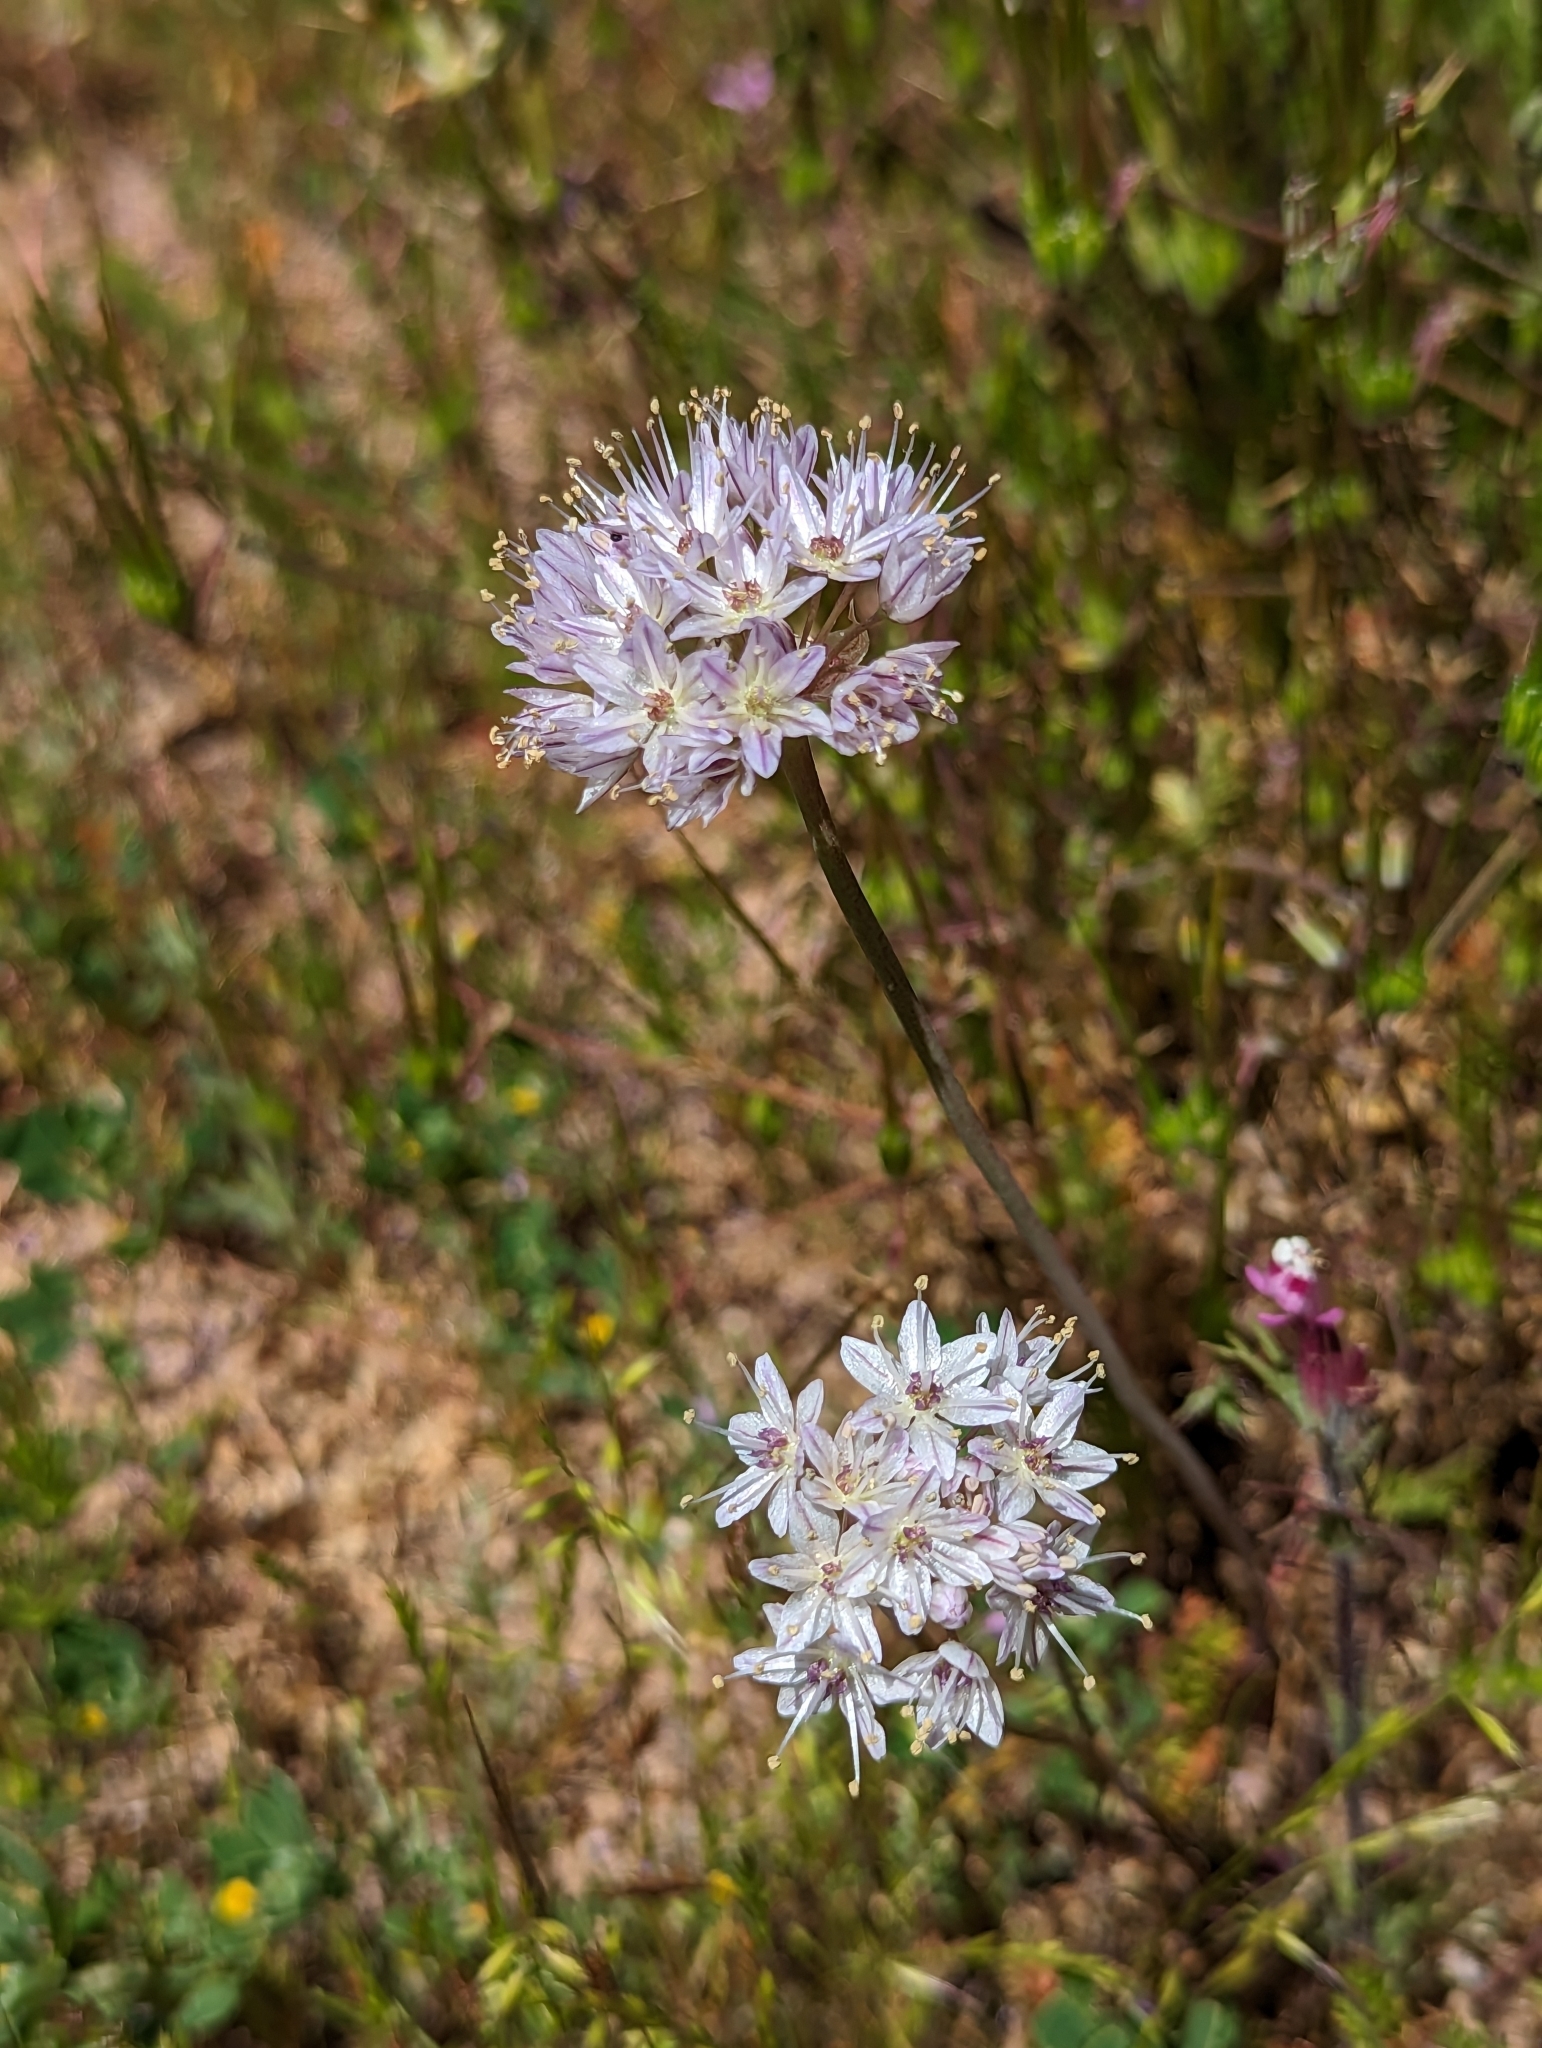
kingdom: Plantae
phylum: Tracheophyta
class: Liliopsida
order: Asparagales
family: Amaryllidaceae
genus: Allium
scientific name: Allium howellii
